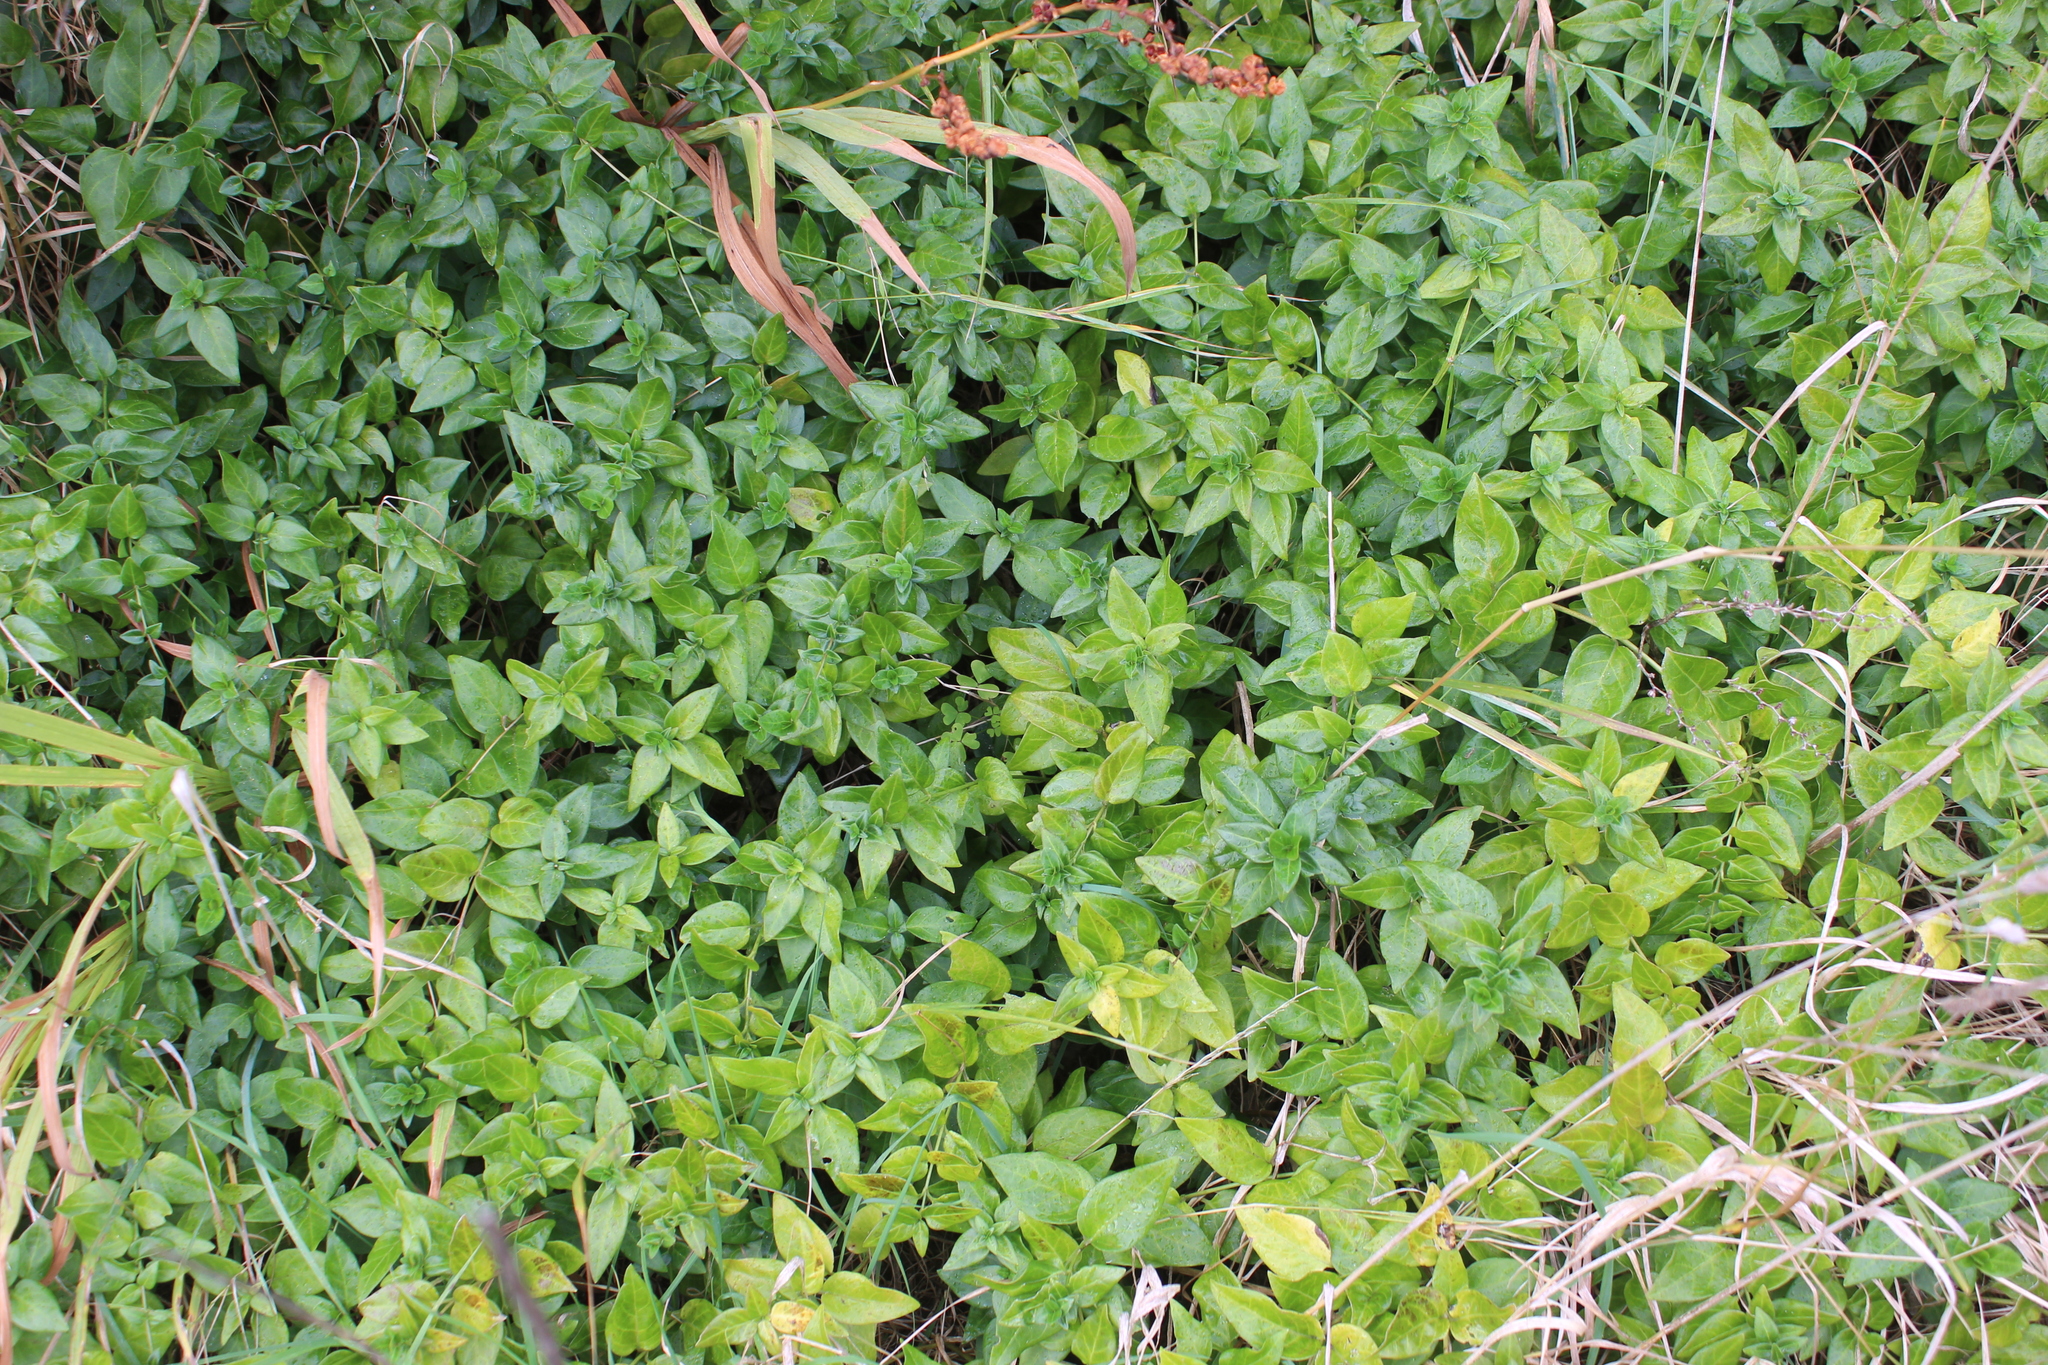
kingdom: Plantae
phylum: Tracheophyta
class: Magnoliopsida
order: Gentianales
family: Apocynaceae
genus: Vinca
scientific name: Vinca major
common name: Greater periwinkle
